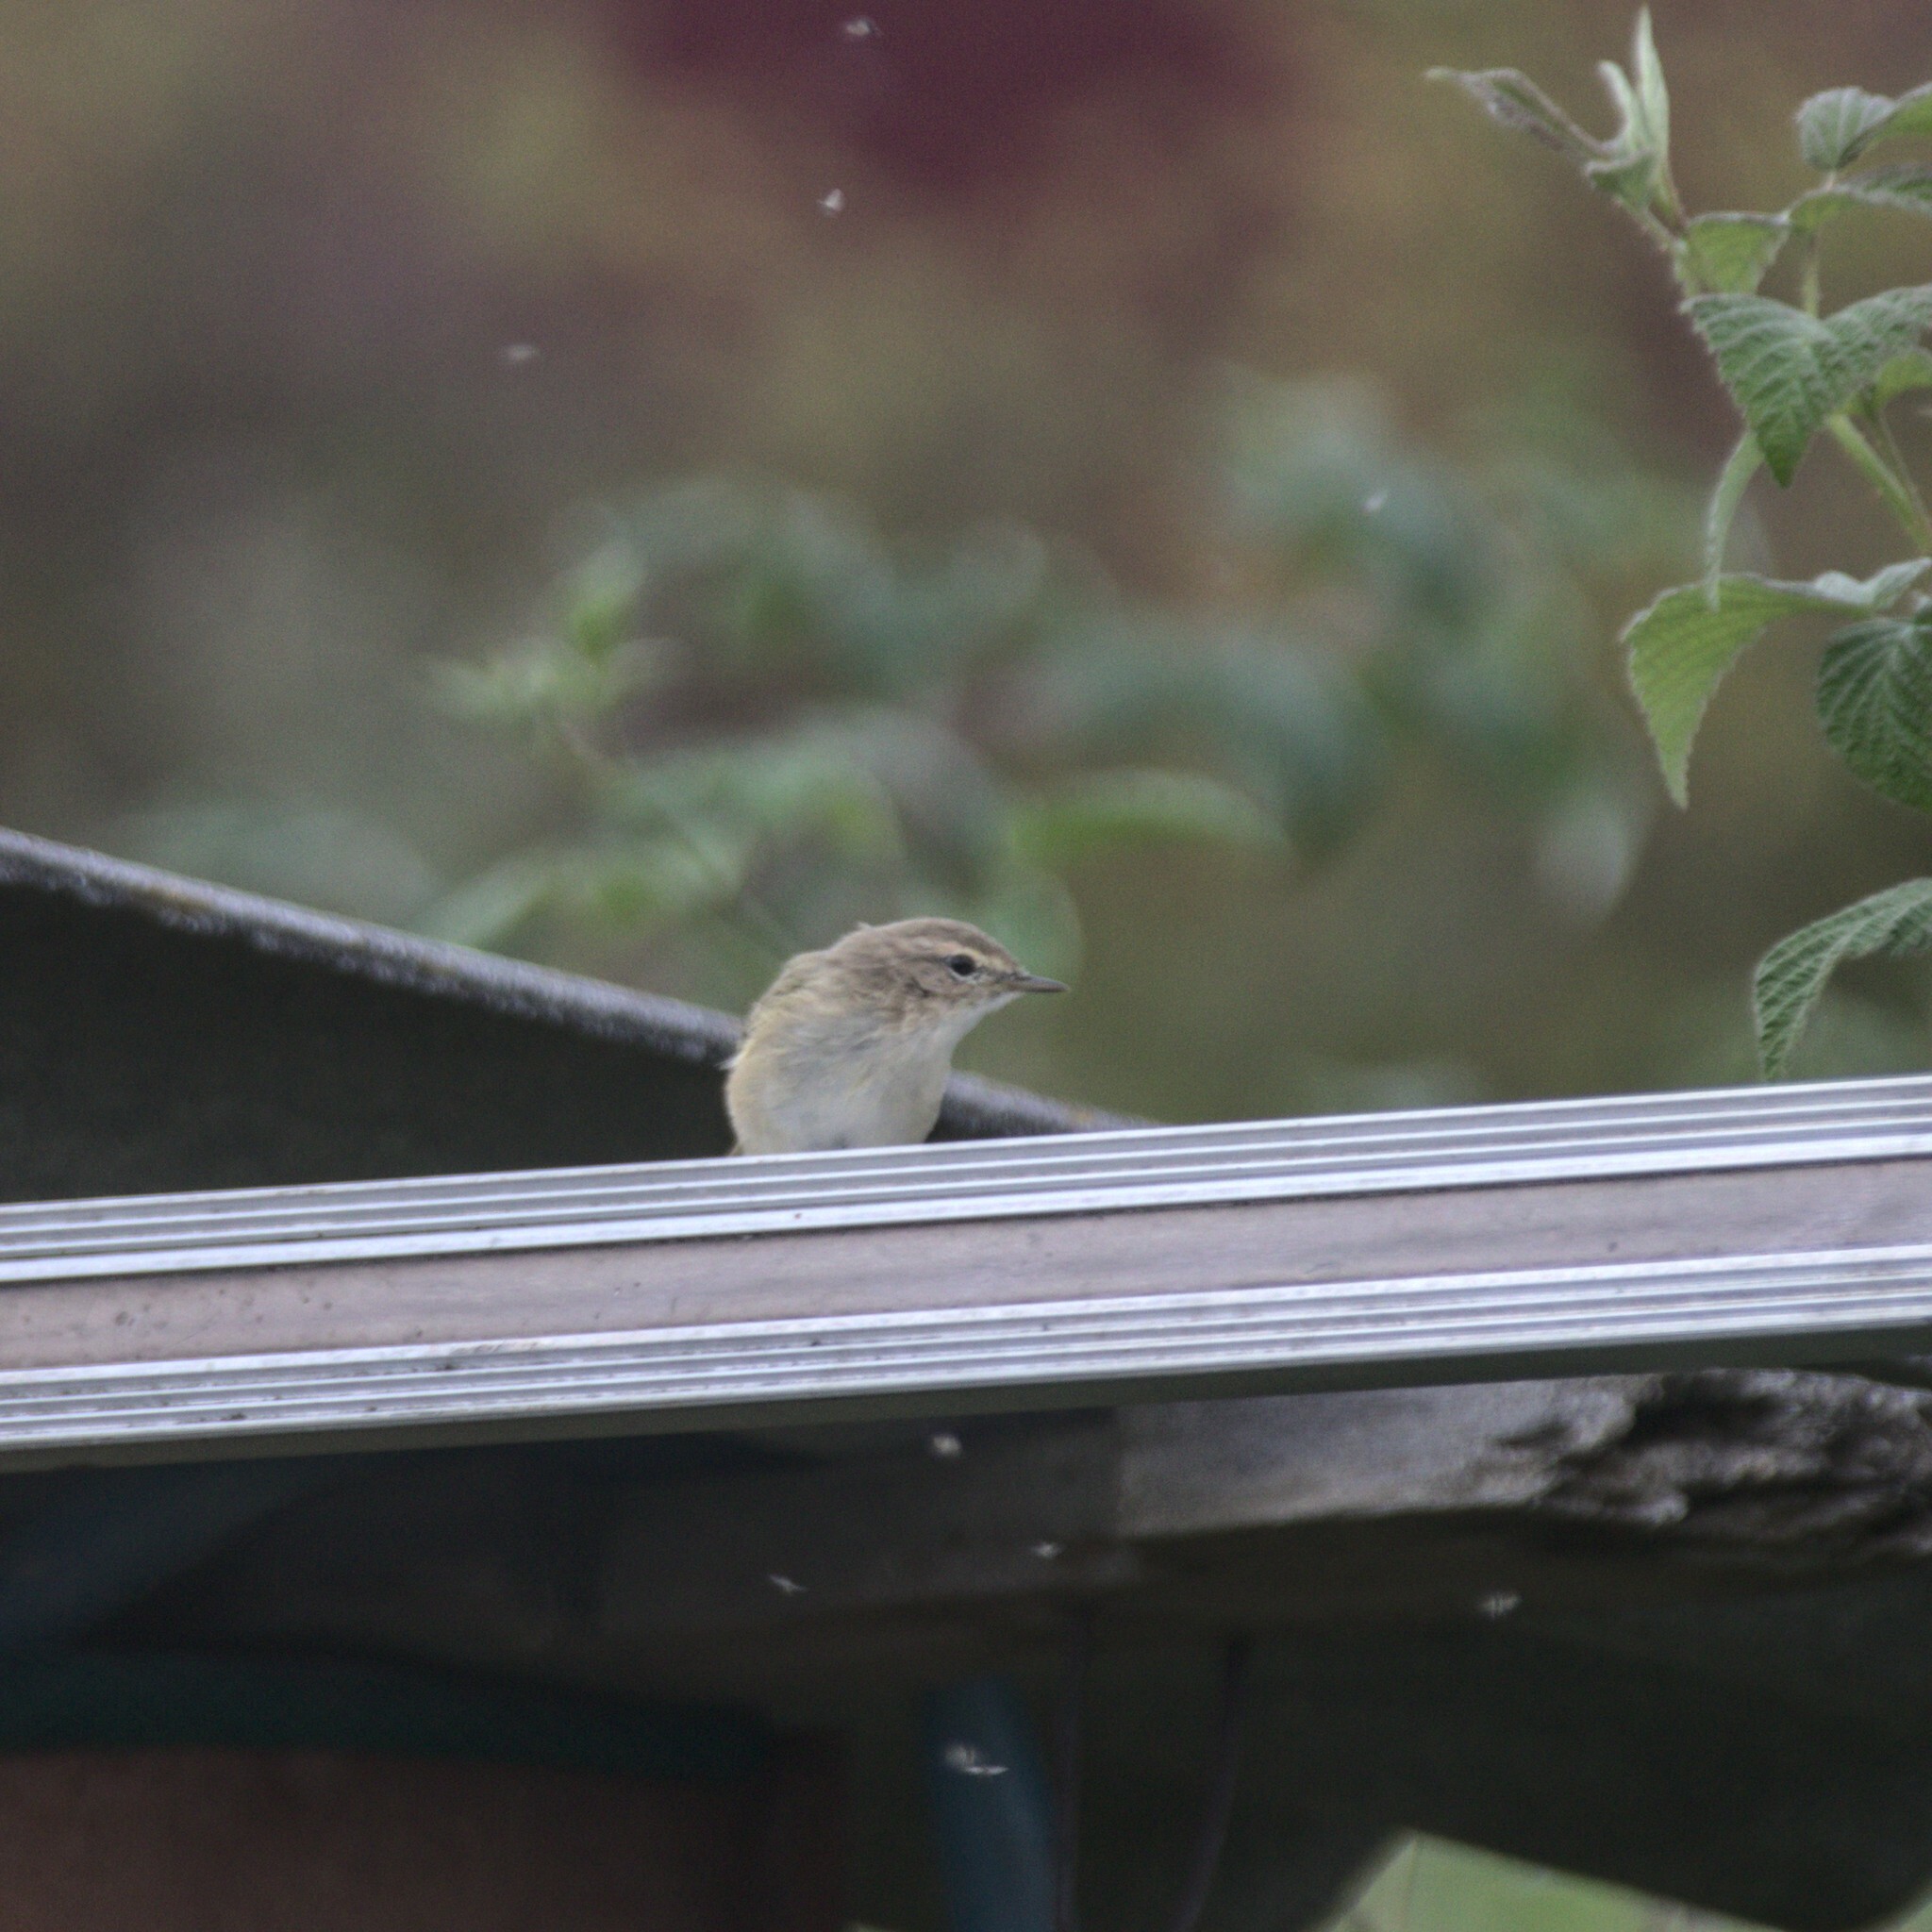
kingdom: Animalia
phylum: Chordata
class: Aves
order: Passeriformes
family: Phylloscopidae
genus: Phylloscopus
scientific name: Phylloscopus collybita
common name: Common chiffchaff
